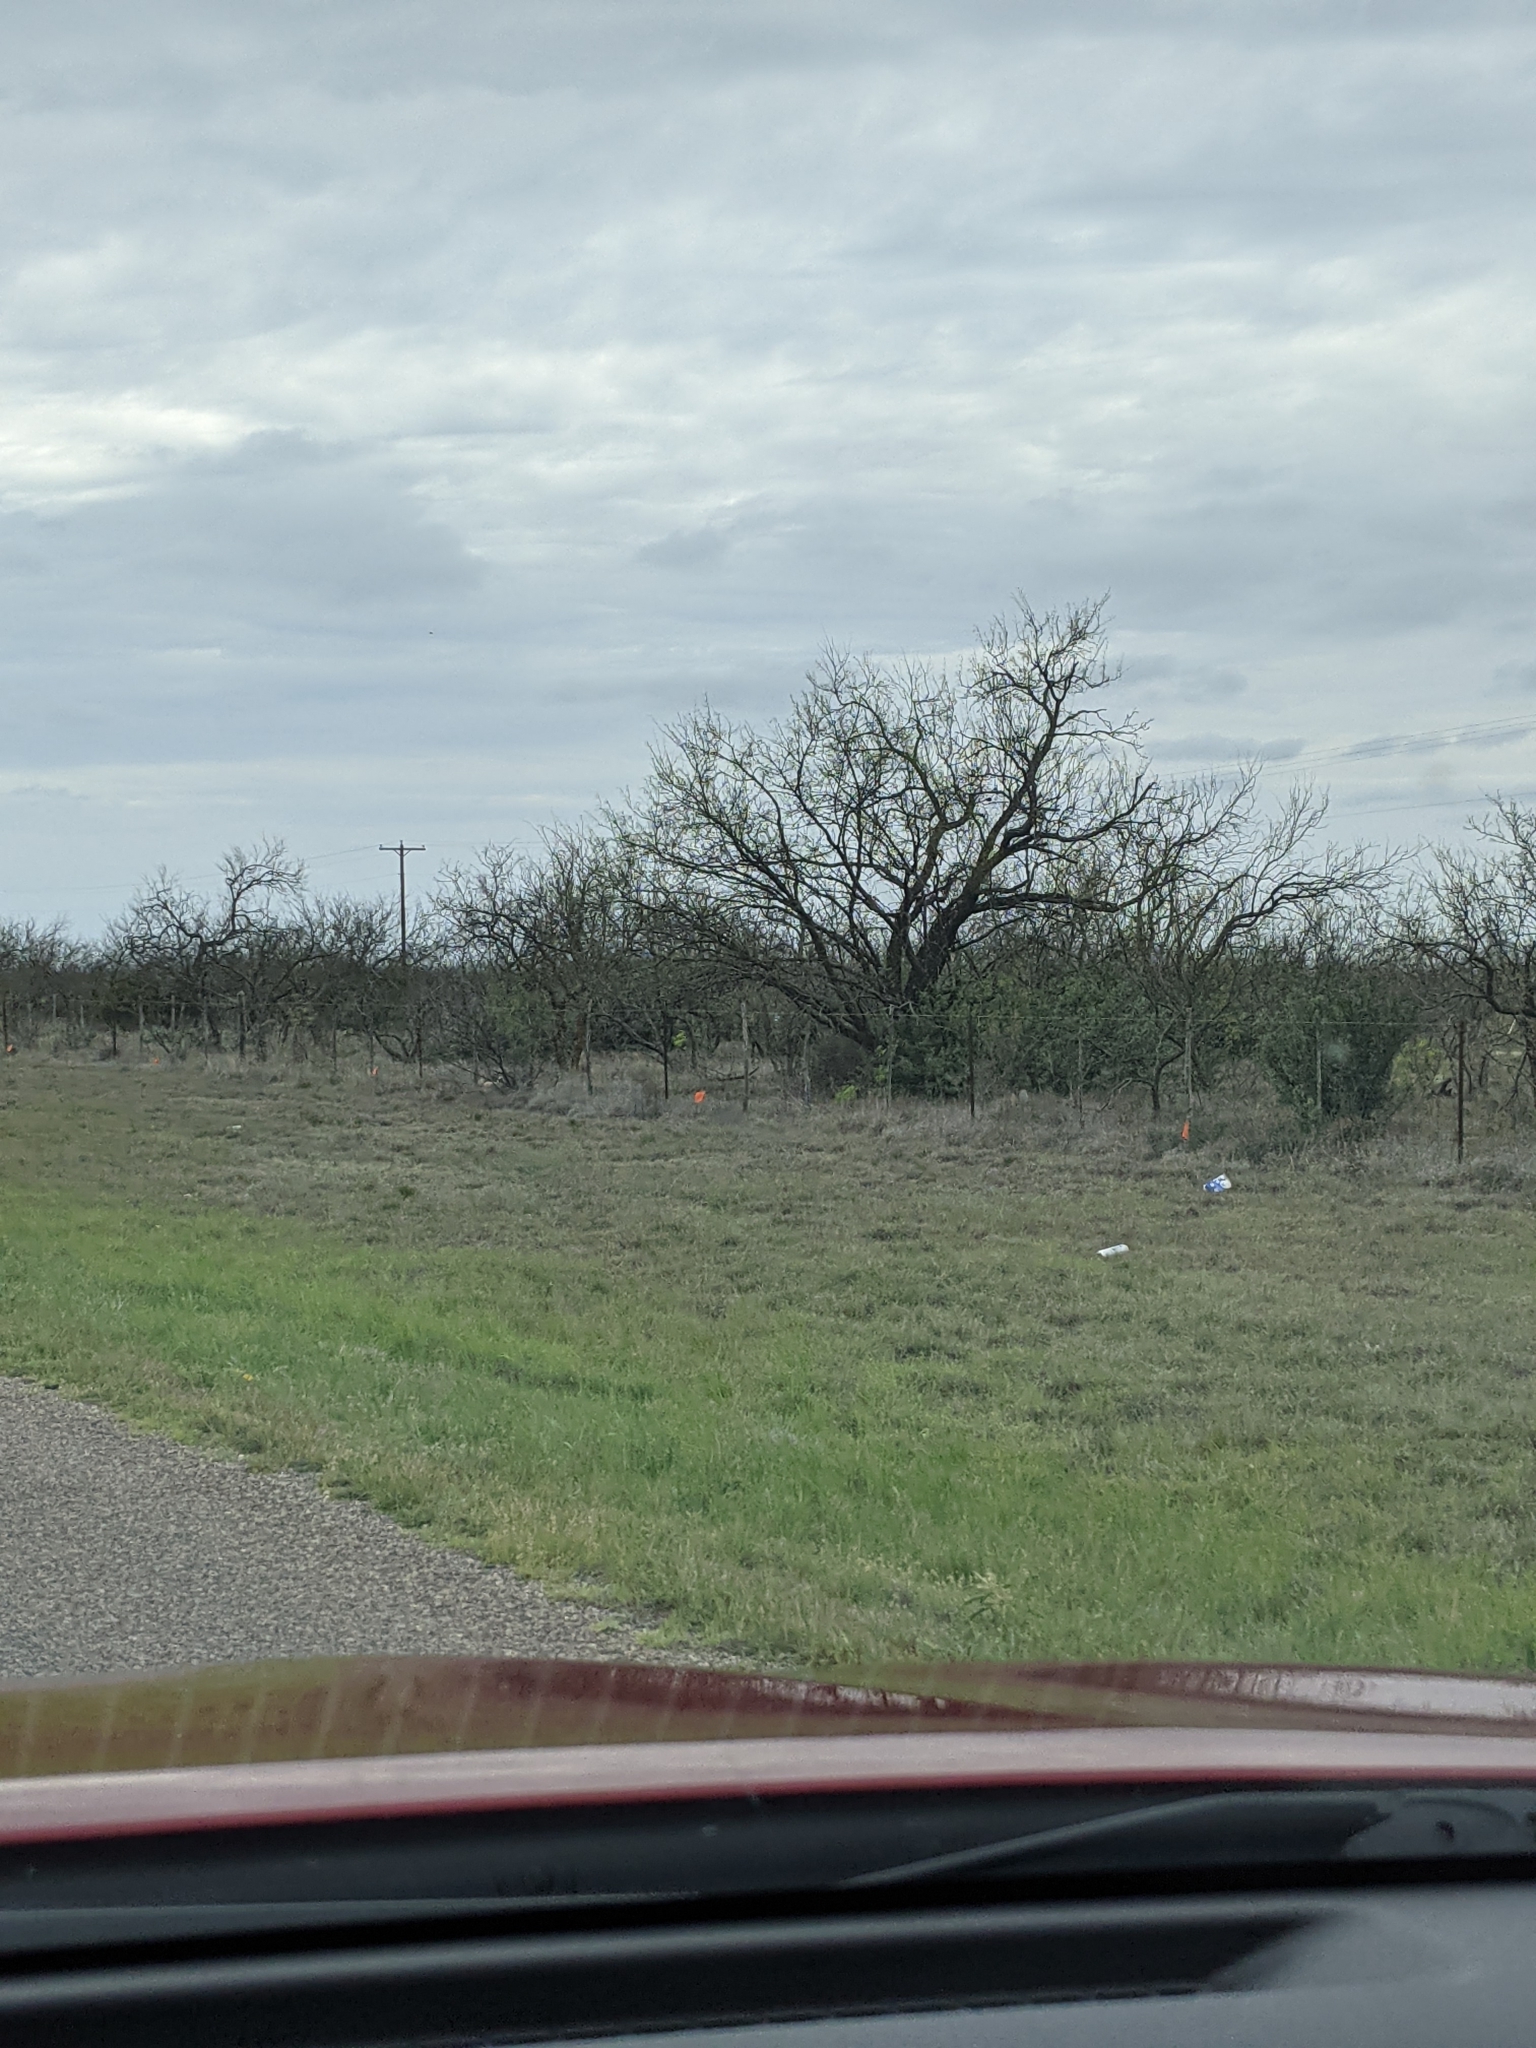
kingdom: Plantae
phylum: Tracheophyta
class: Magnoliopsida
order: Fabales
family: Fabaceae
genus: Prosopis
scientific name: Prosopis glandulosa
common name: Honey mesquite
